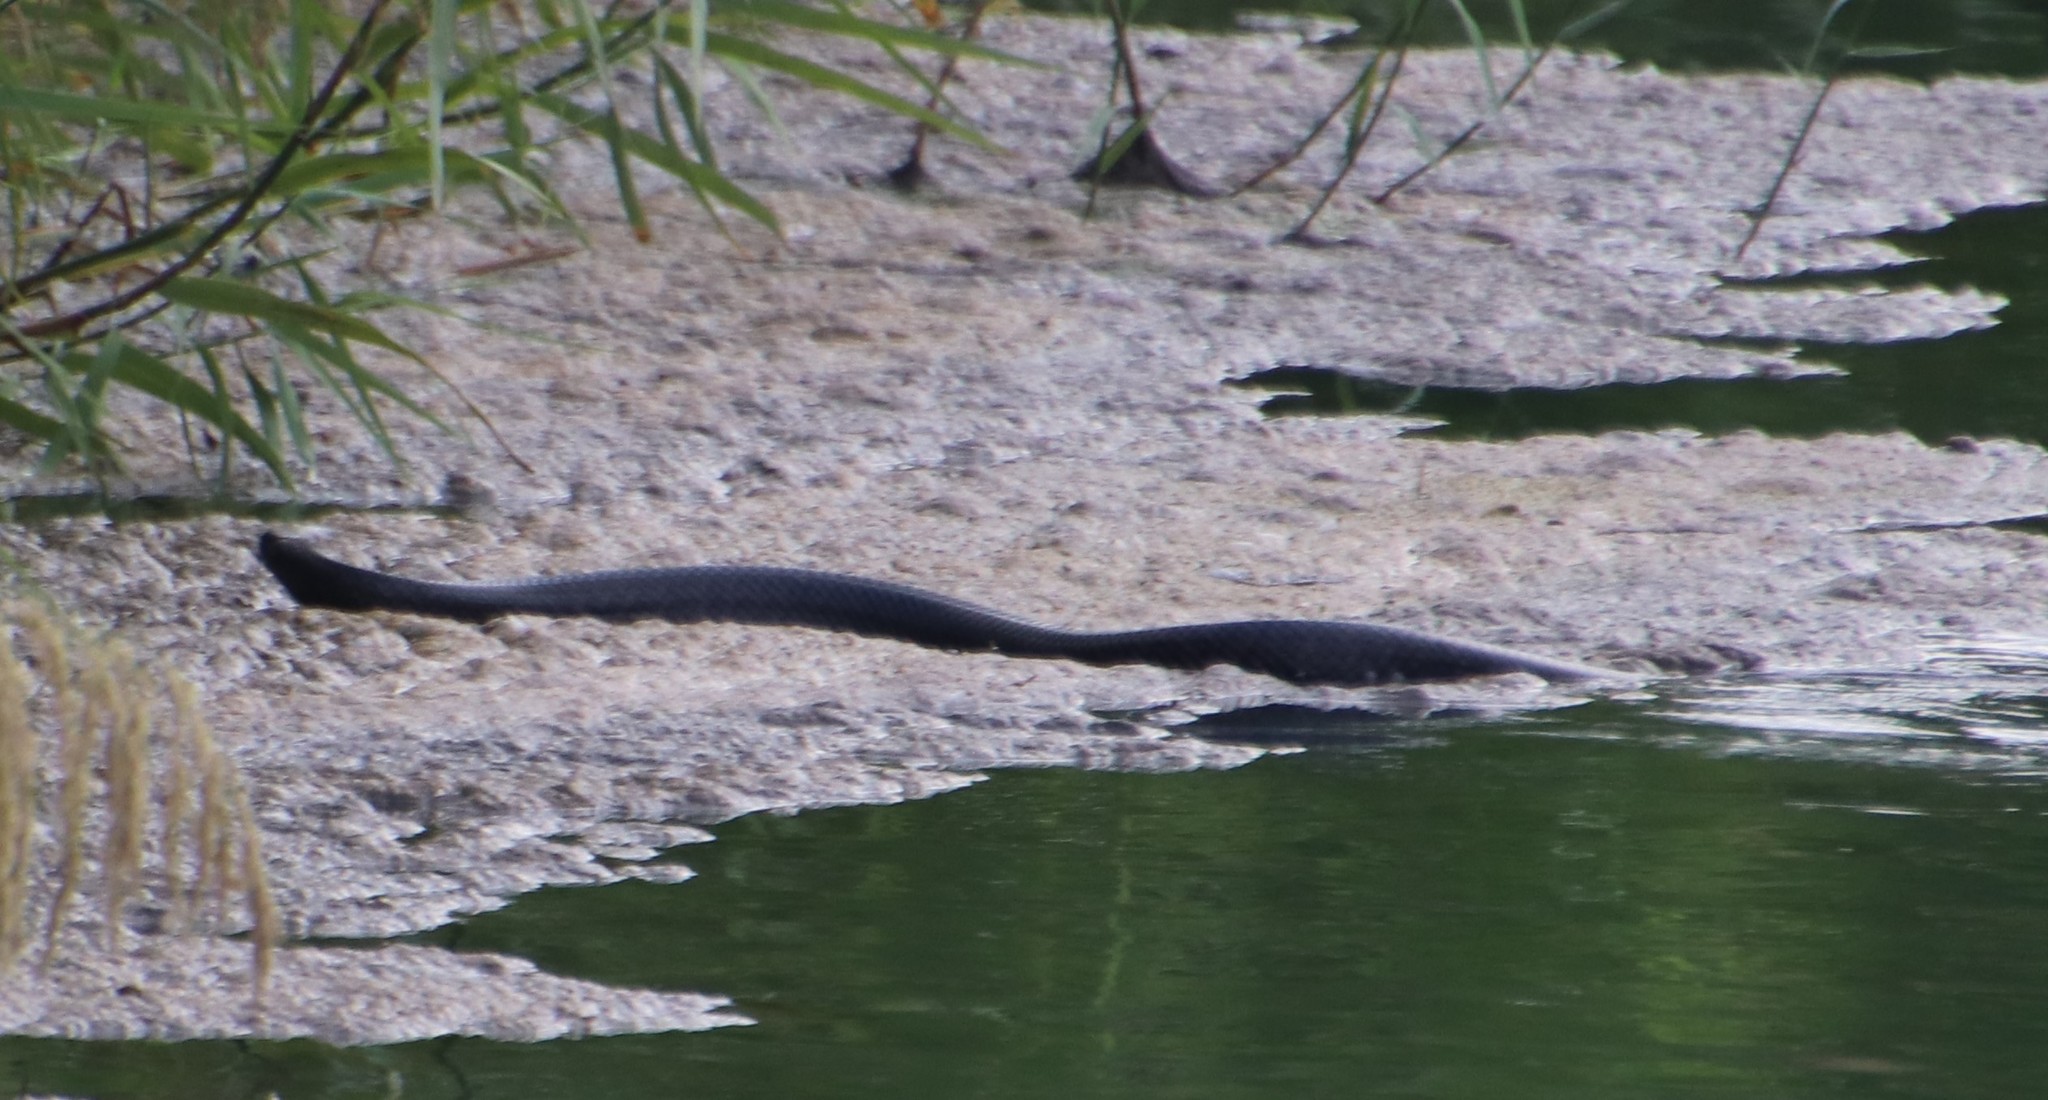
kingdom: Animalia
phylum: Chordata
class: Squamata
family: Colubridae
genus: Drymarchon
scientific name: Drymarchon melanurus
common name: Central american indigo snake
